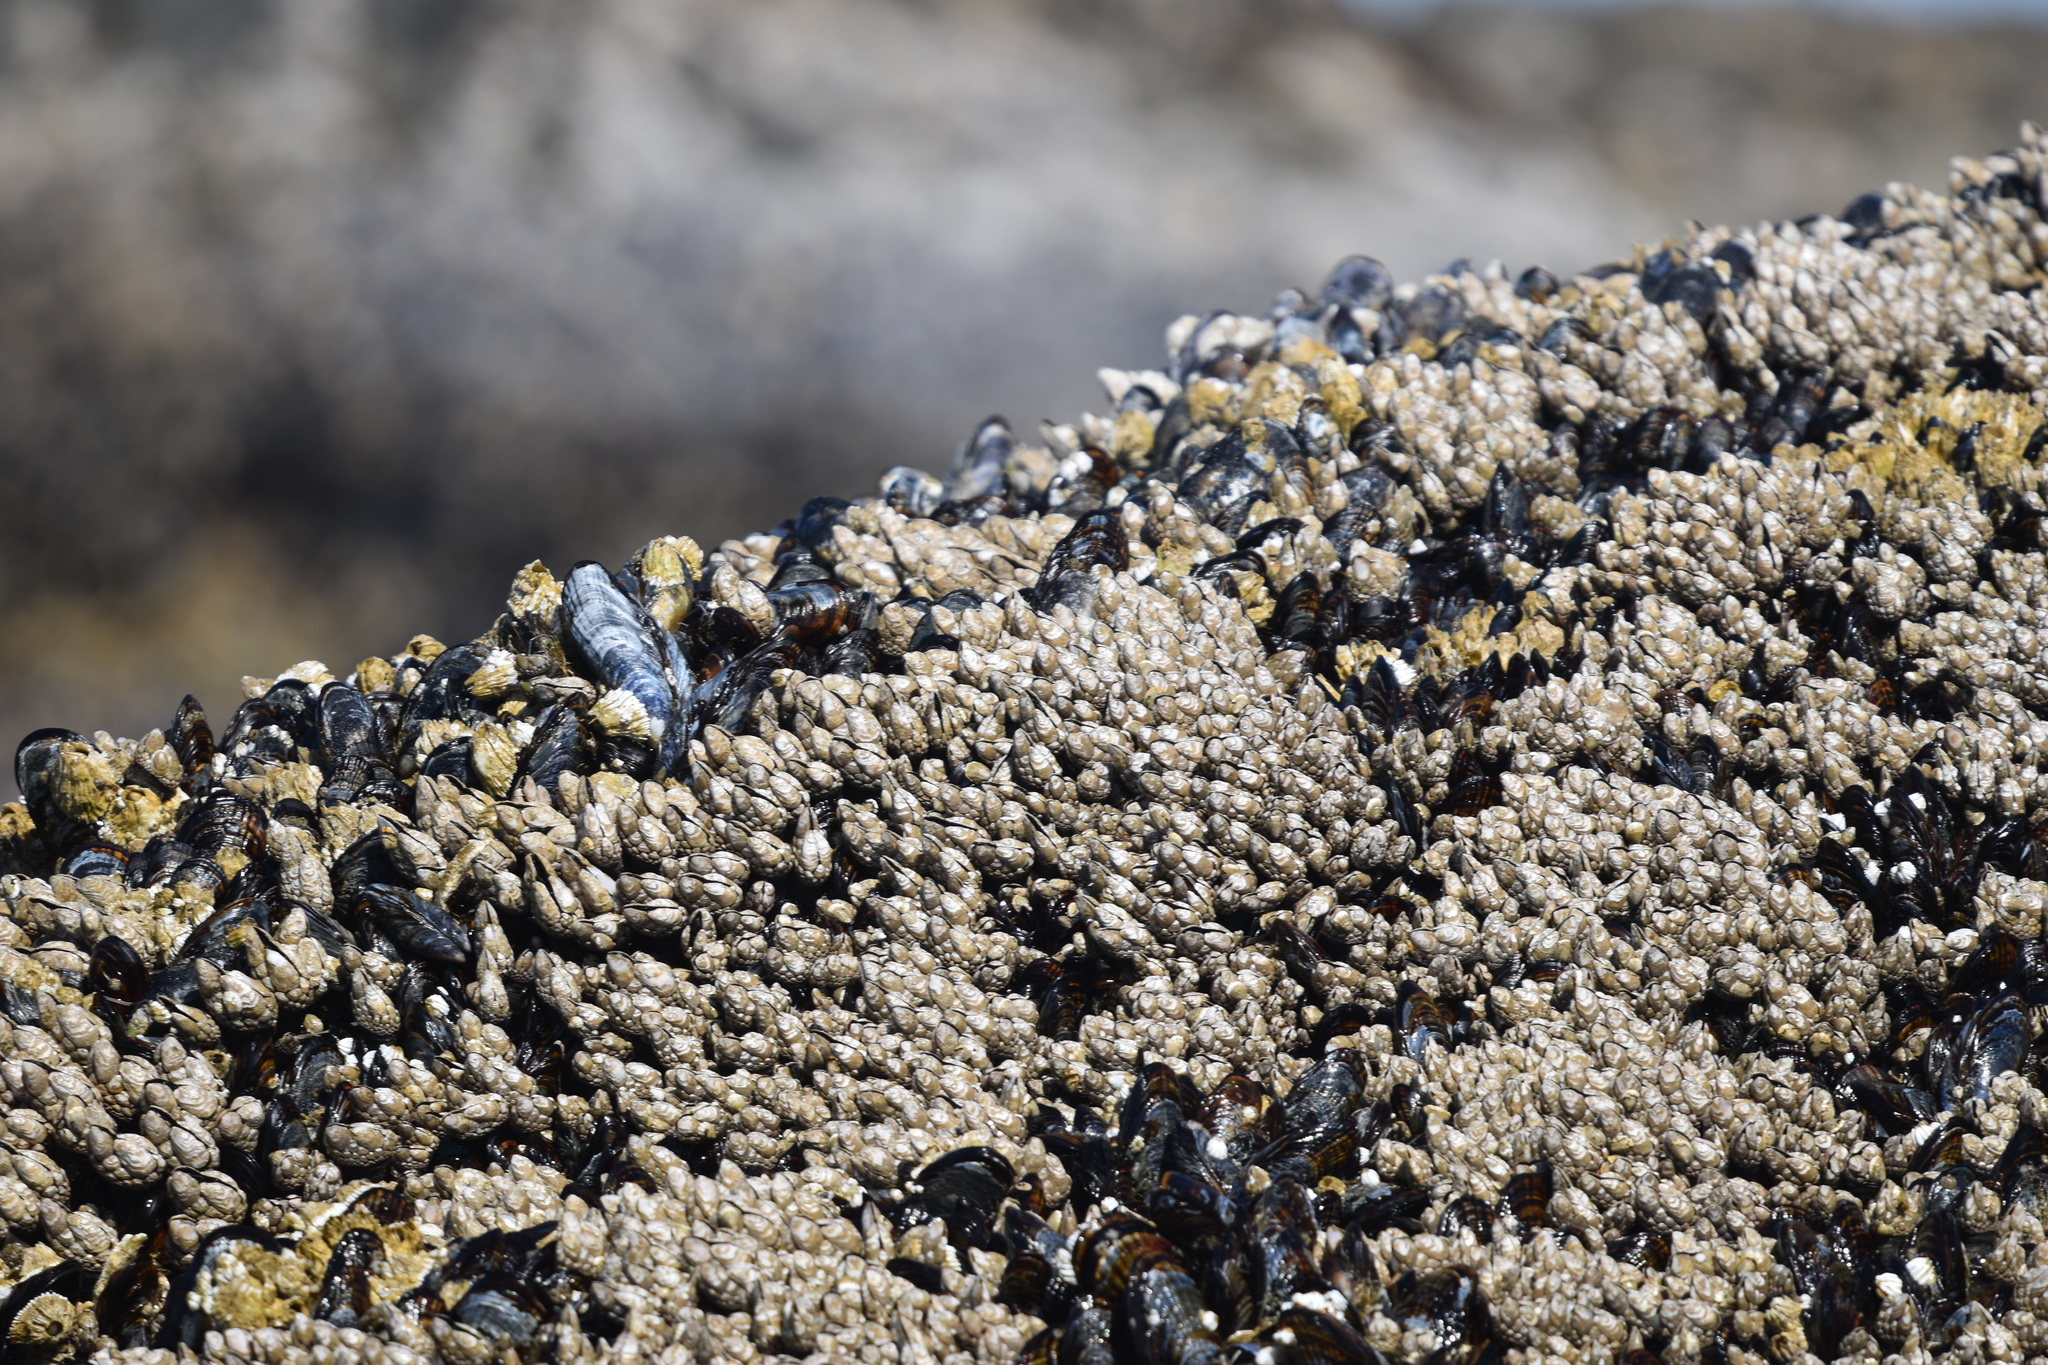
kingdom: Animalia
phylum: Arthropoda
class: Maxillopoda
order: Pedunculata
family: Pollicipedidae
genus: Pollicipes
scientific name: Pollicipes polymerus
